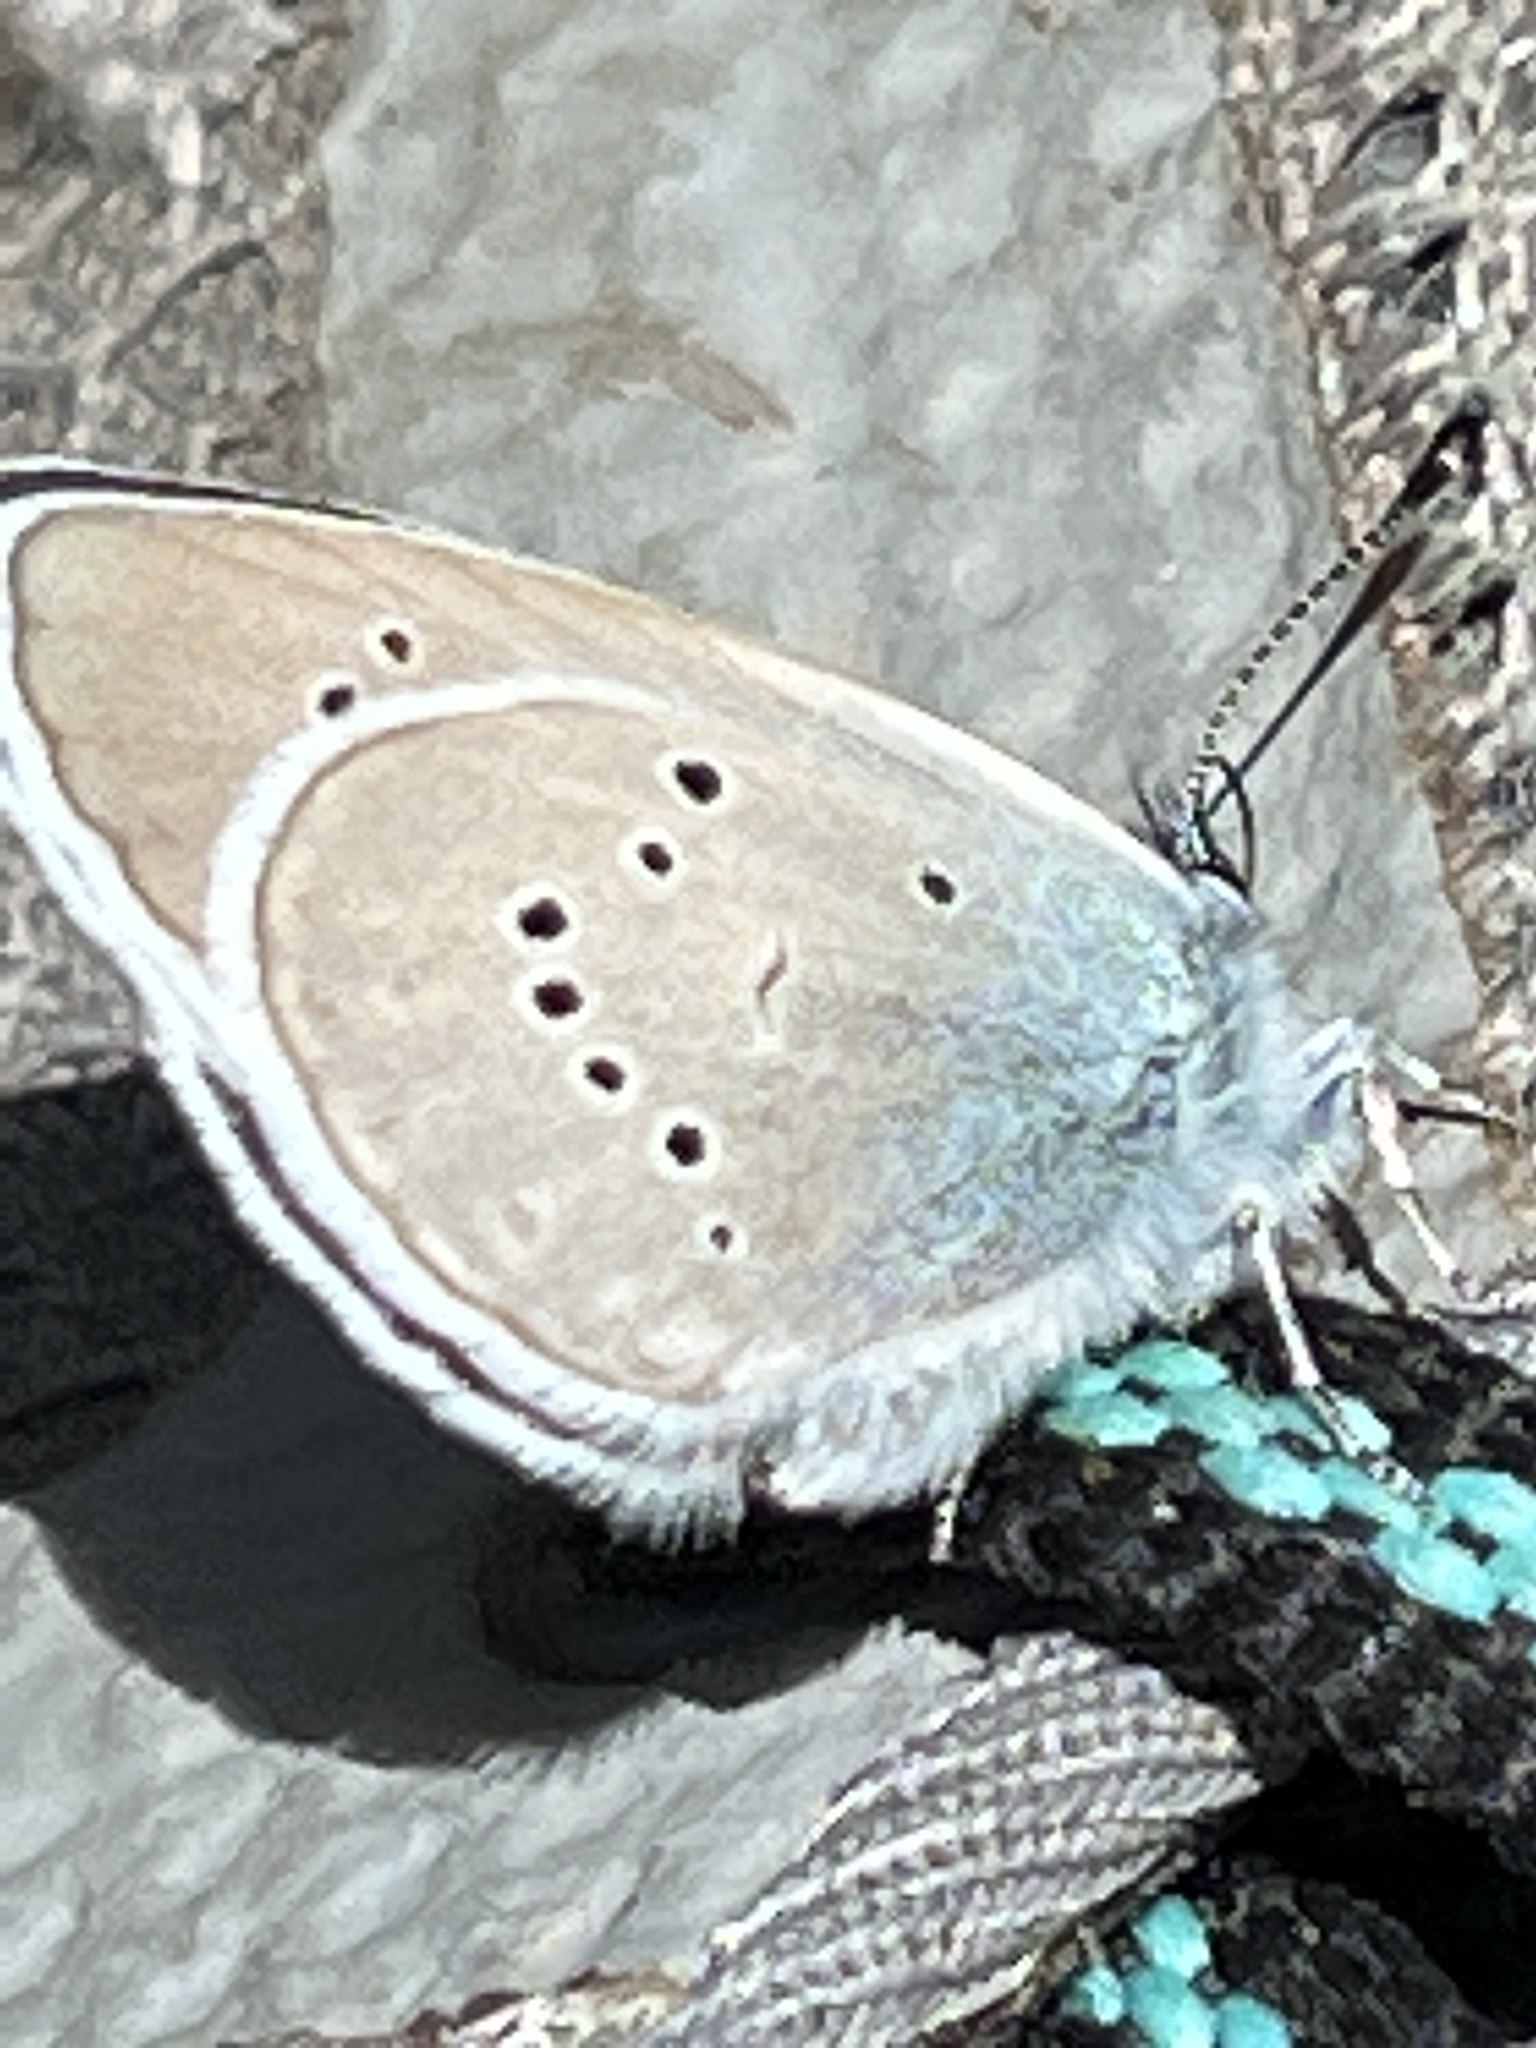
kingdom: Animalia
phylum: Arthropoda
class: Insecta
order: Lepidoptera
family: Lycaenidae
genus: Cyaniris
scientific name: Cyaniris semiargus
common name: Mazarine blue
